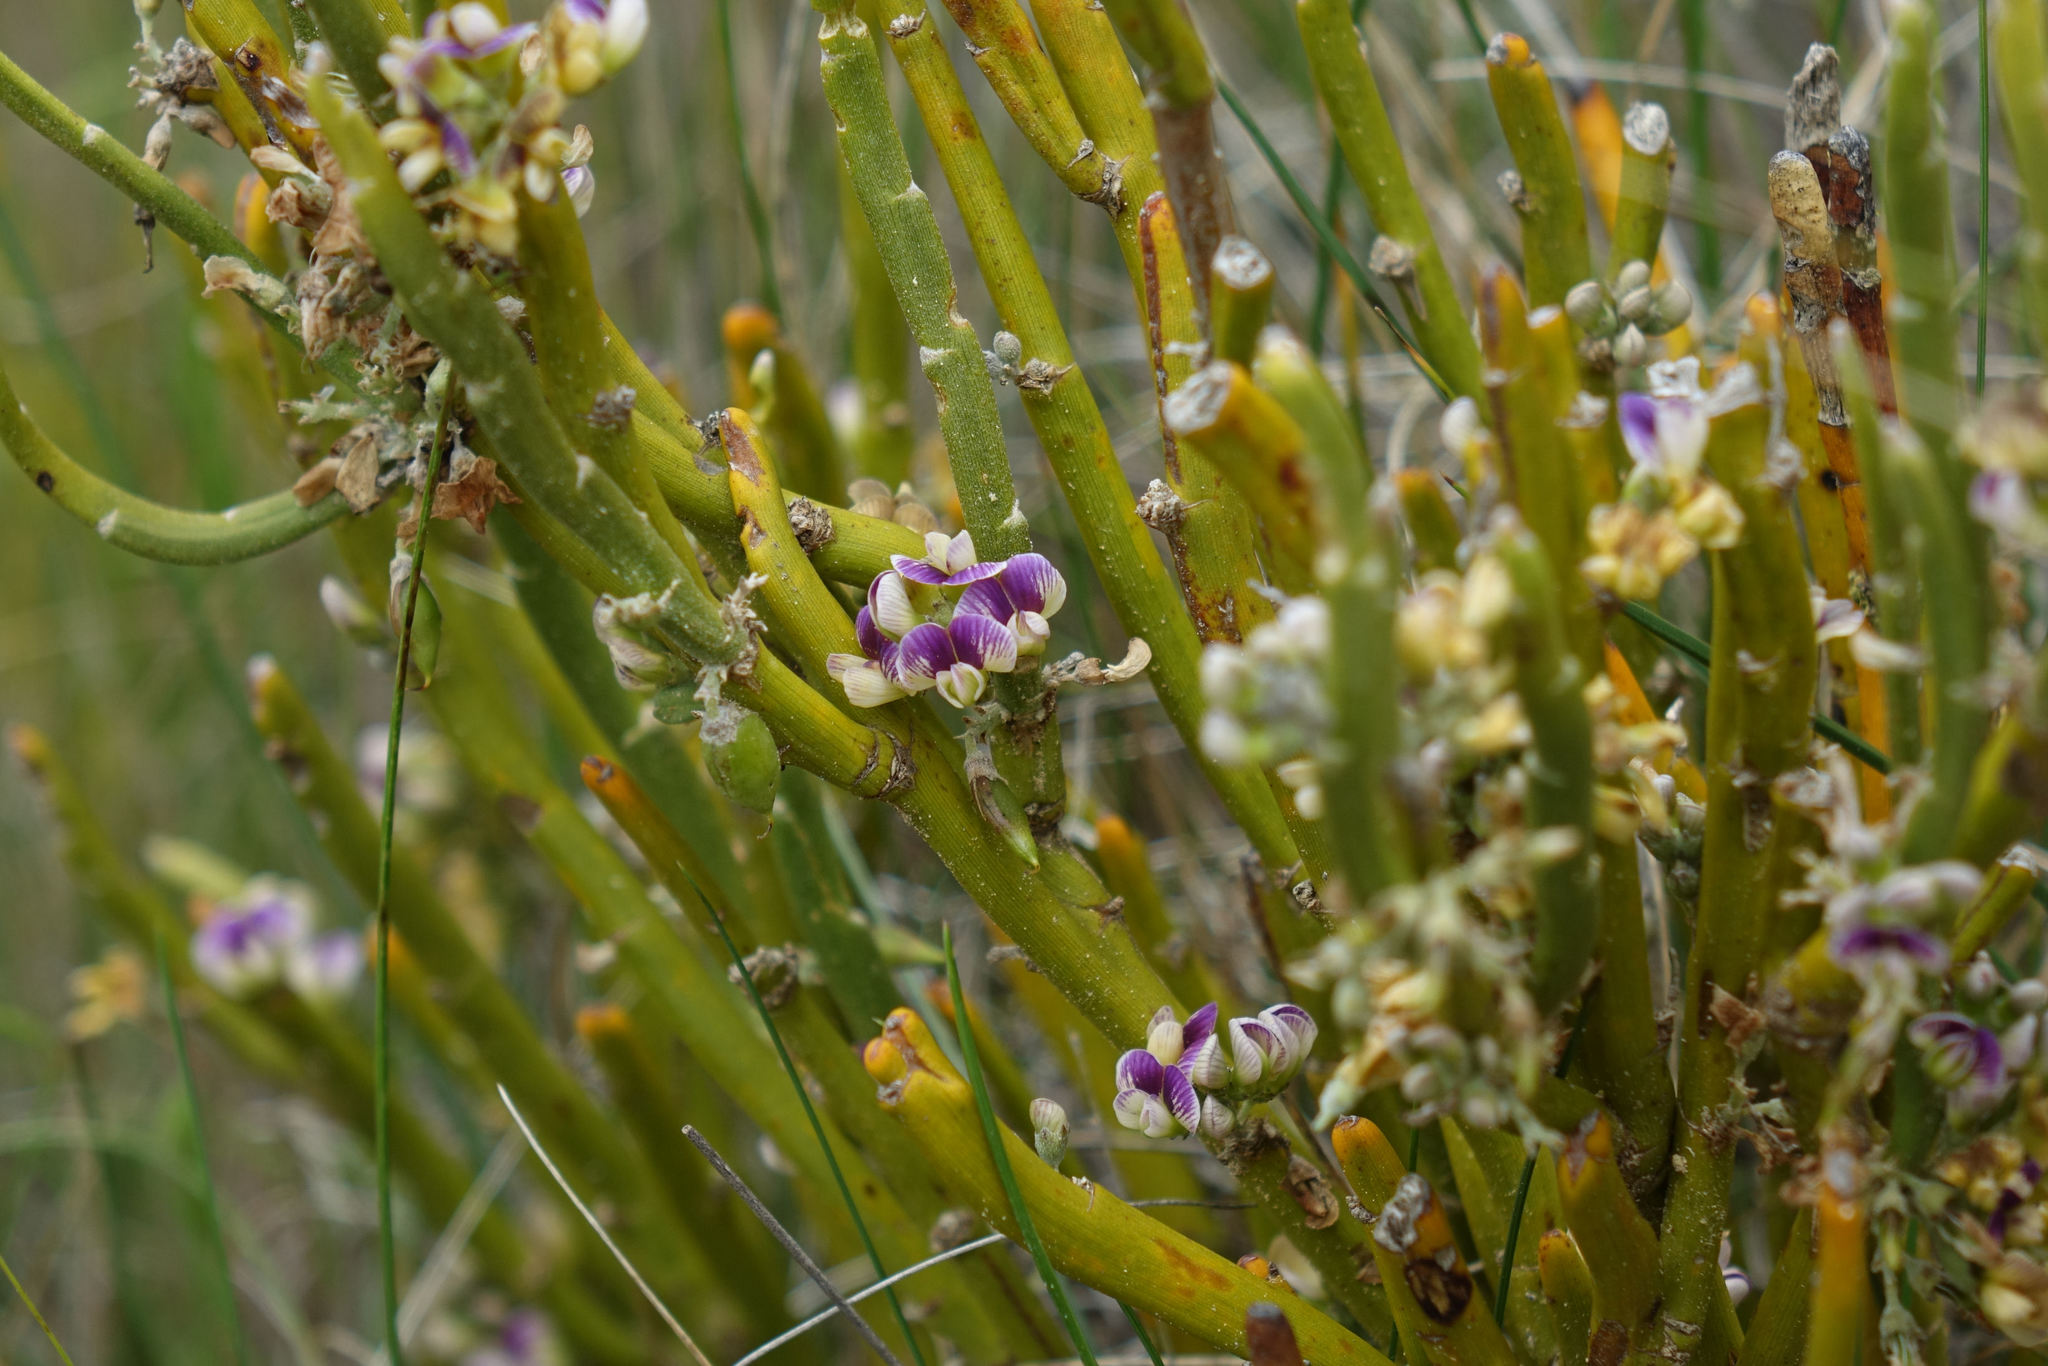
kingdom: Plantae
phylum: Tracheophyta
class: Magnoliopsida
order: Fabales
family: Fabaceae
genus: Carmichaelia
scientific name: Carmichaelia hollowayi
